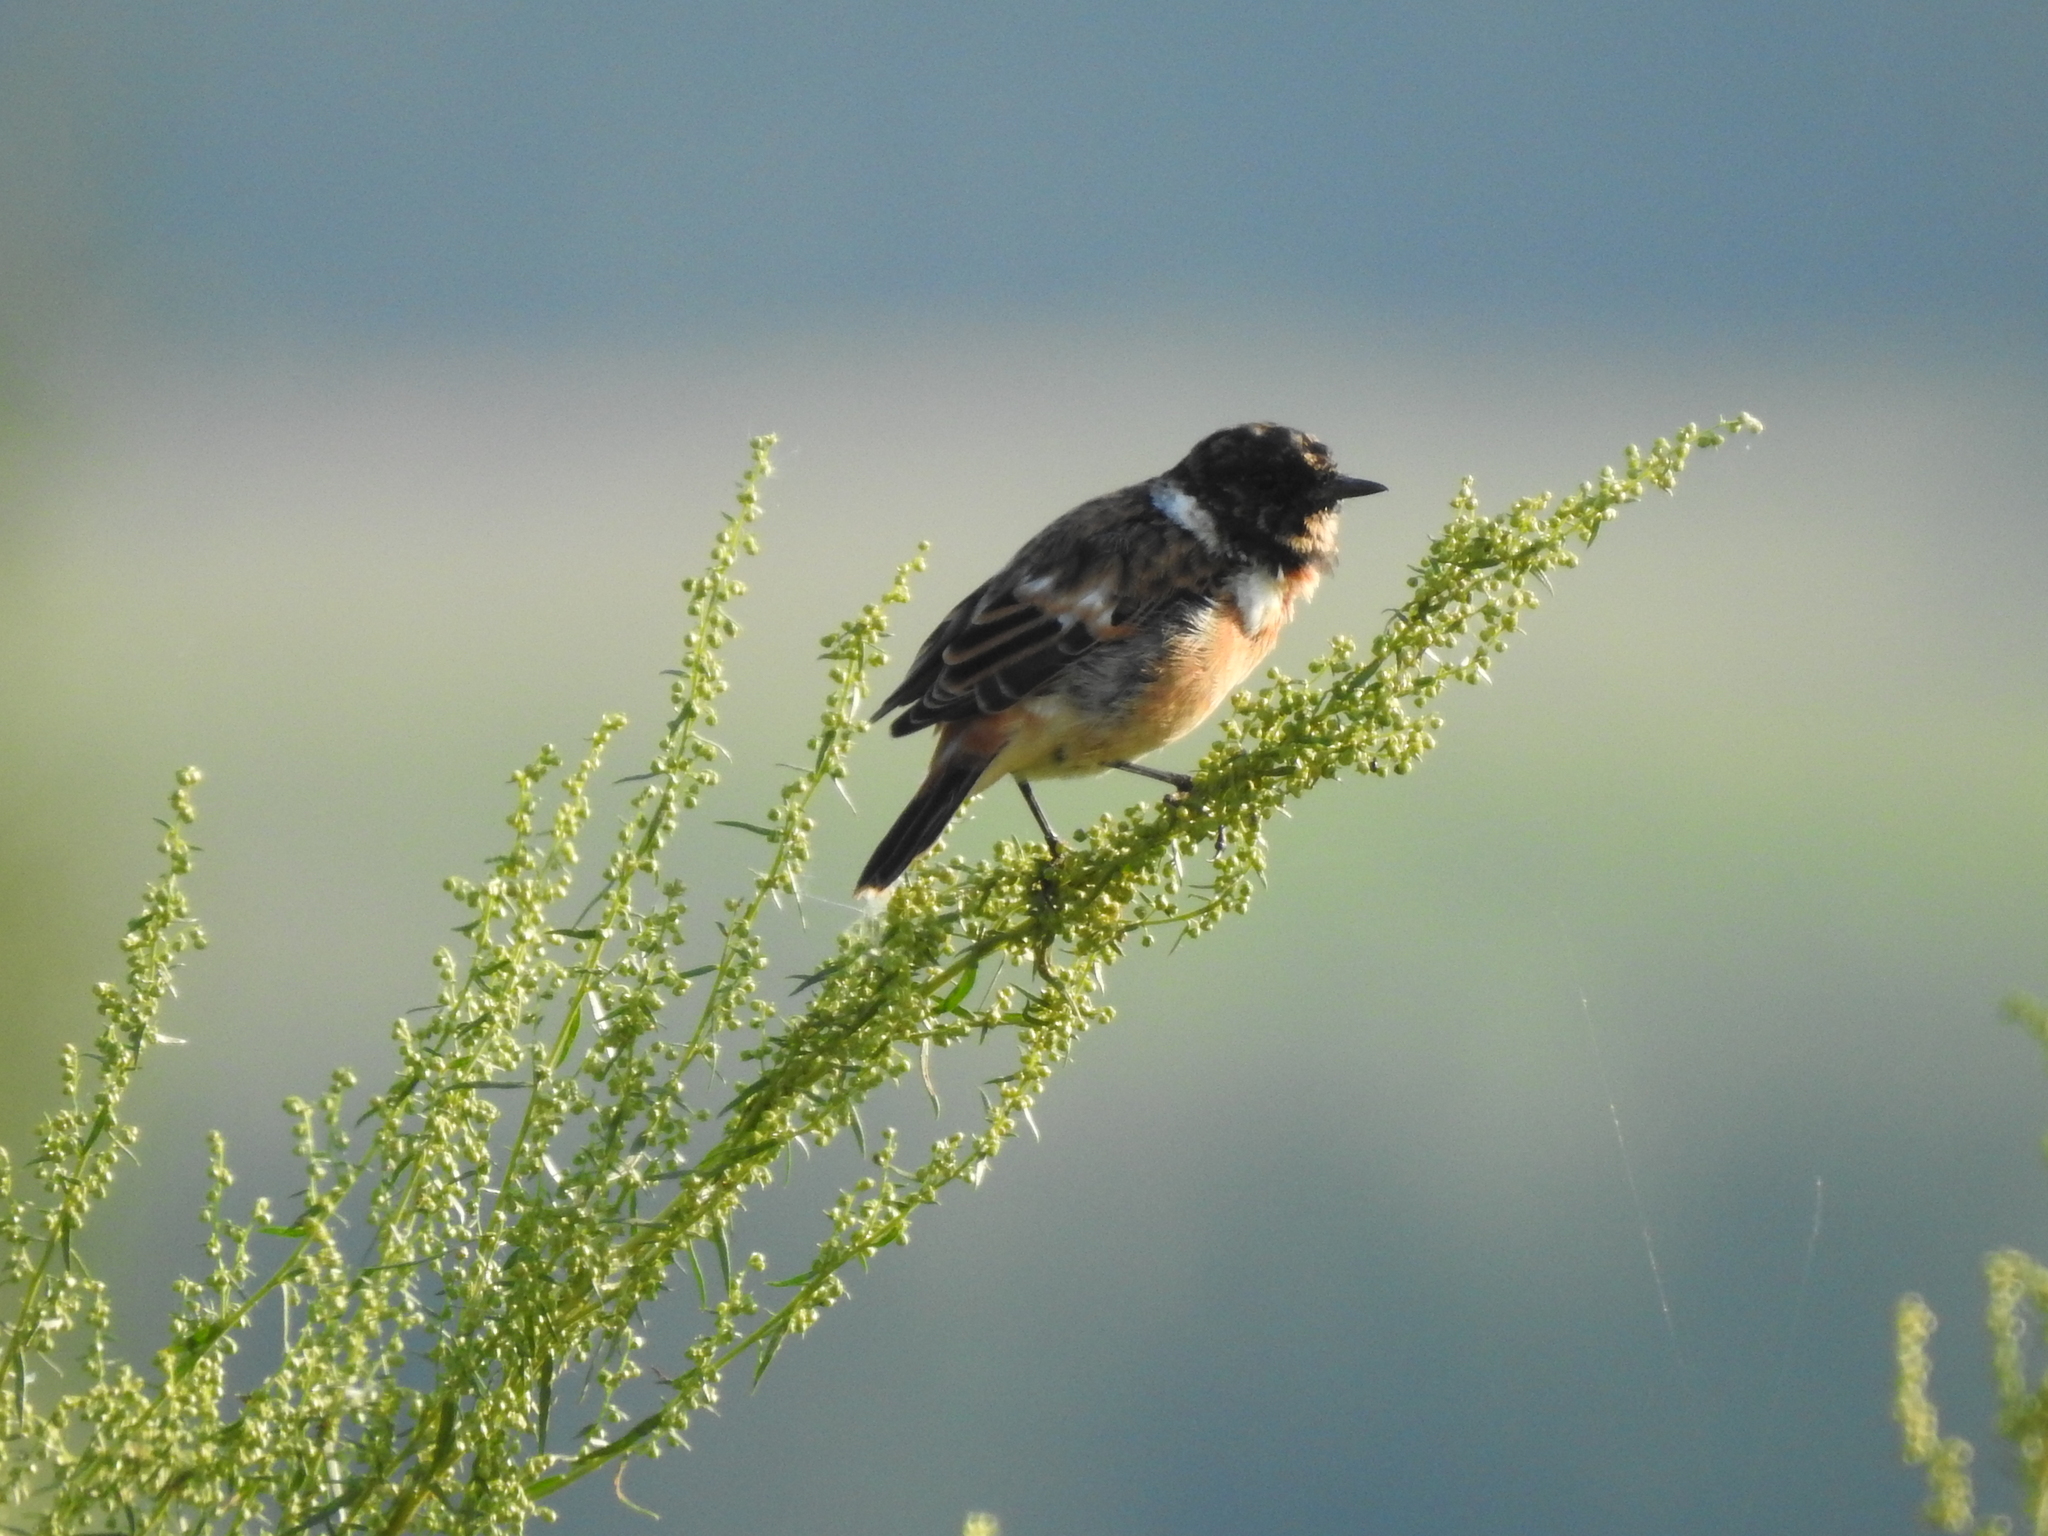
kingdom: Animalia
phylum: Chordata
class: Aves
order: Passeriformes
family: Muscicapidae
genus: Saxicola
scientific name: Saxicola maurus
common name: Siberian stonechat
